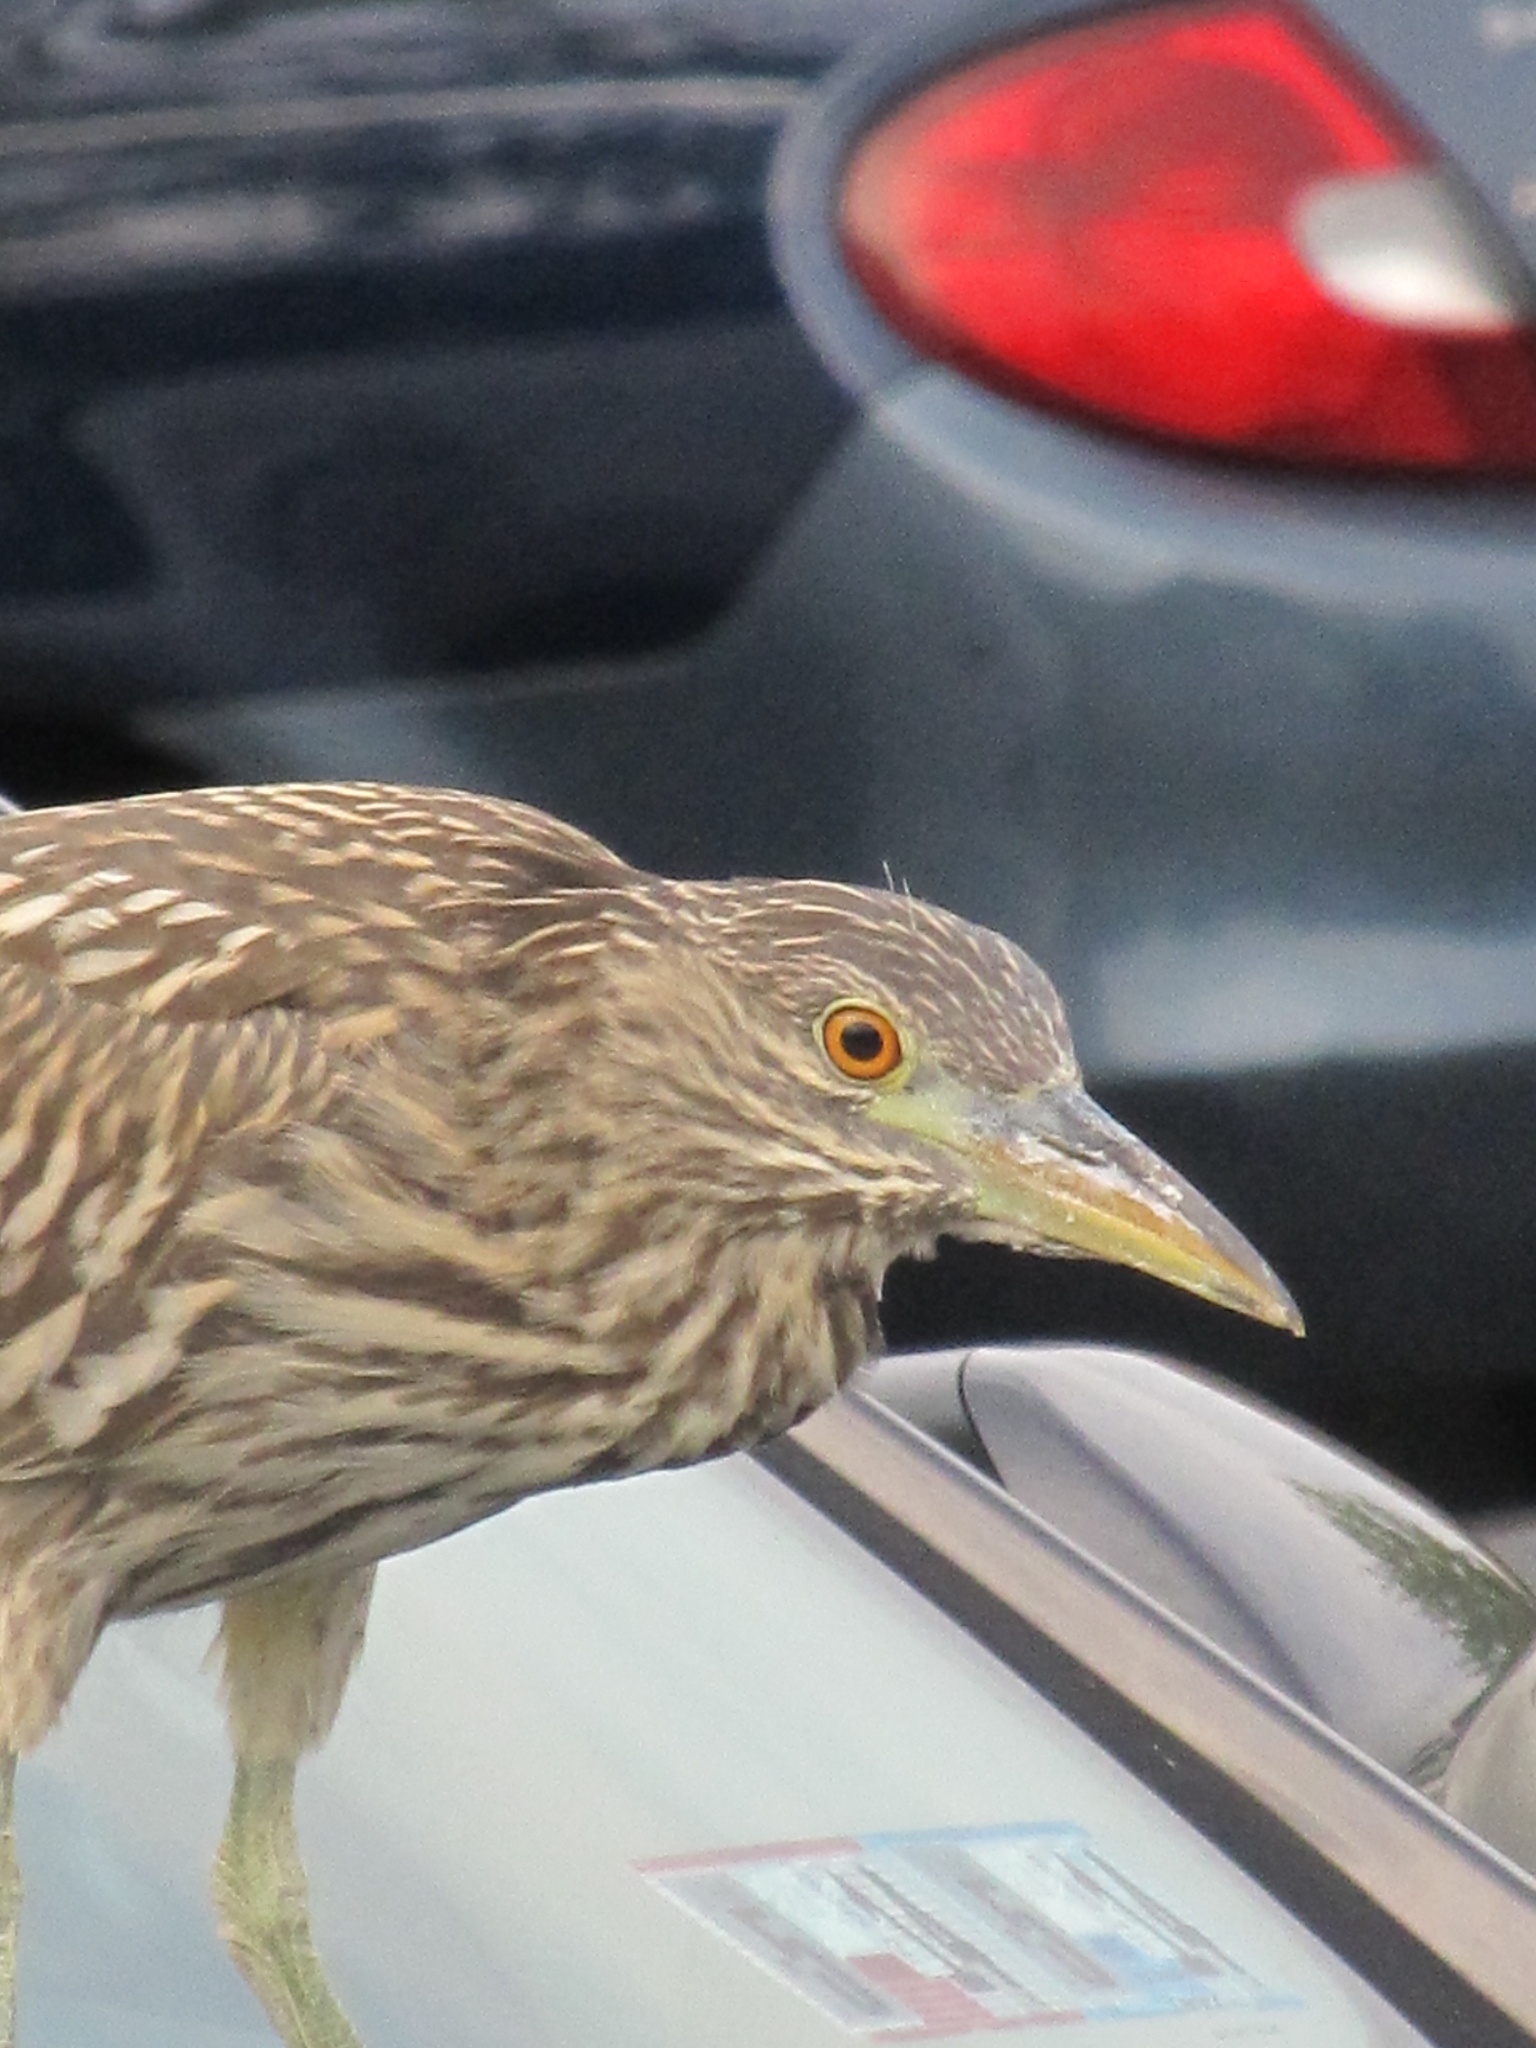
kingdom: Animalia
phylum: Chordata
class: Aves
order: Pelecaniformes
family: Ardeidae
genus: Nycticorax
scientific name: Nycticorax nycticorax
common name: Black-crowned night heron
